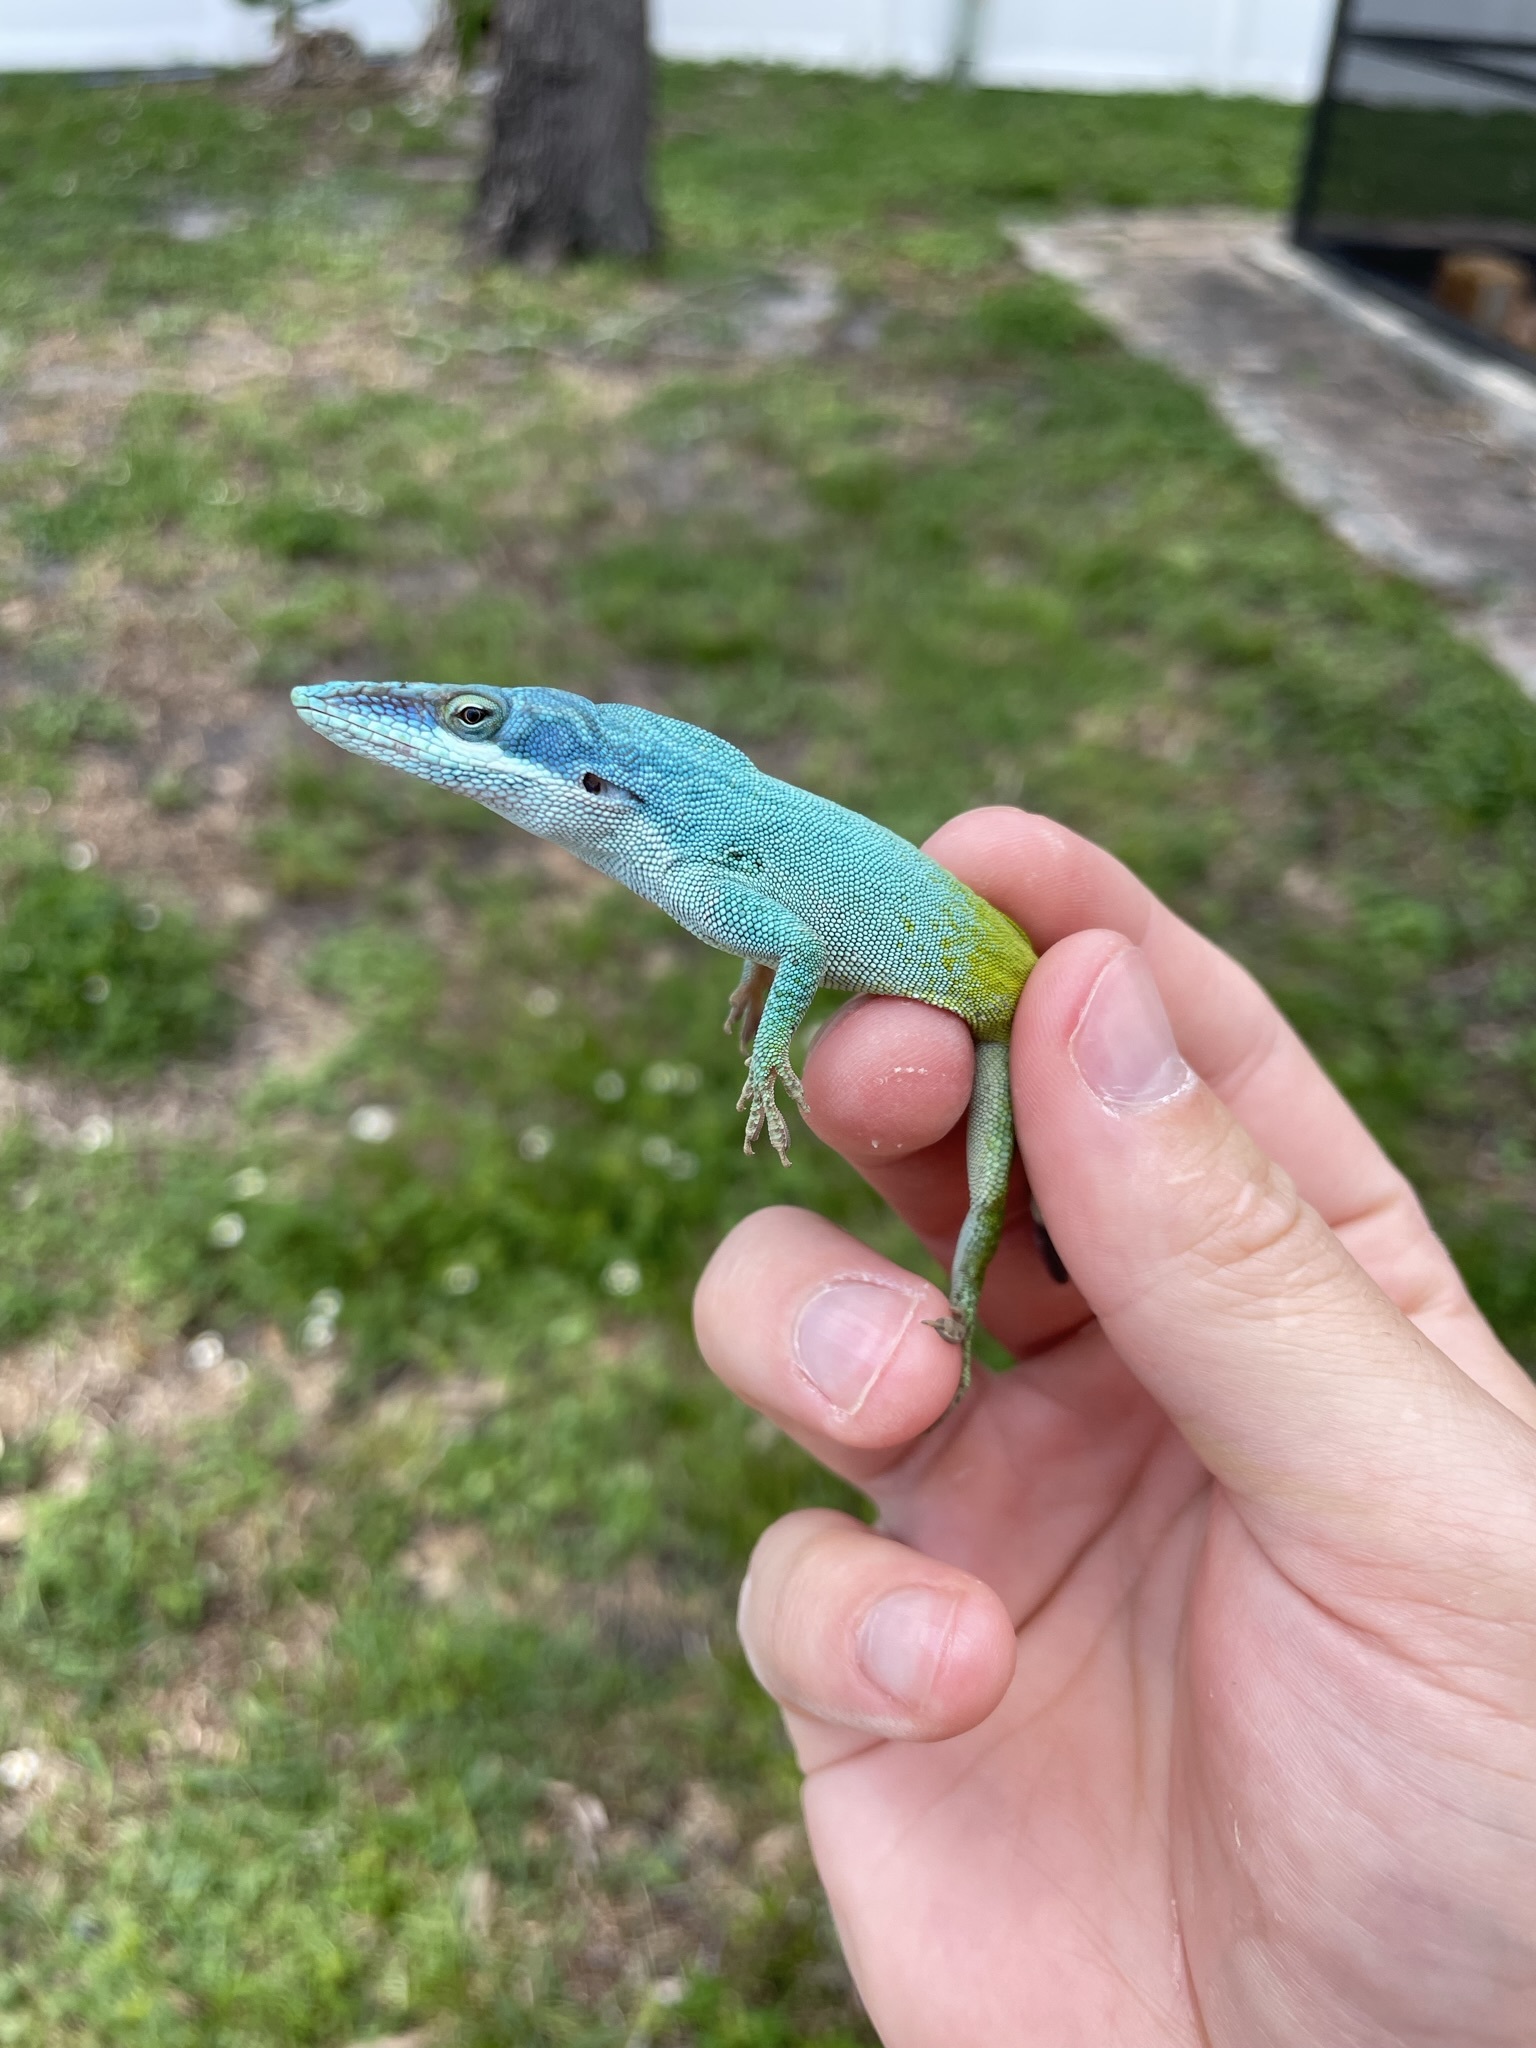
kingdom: Animalia
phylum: Chordata
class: Squamata
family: Dactyloidae
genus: Anolis
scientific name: Anolis allisoni
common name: Allison's anole
